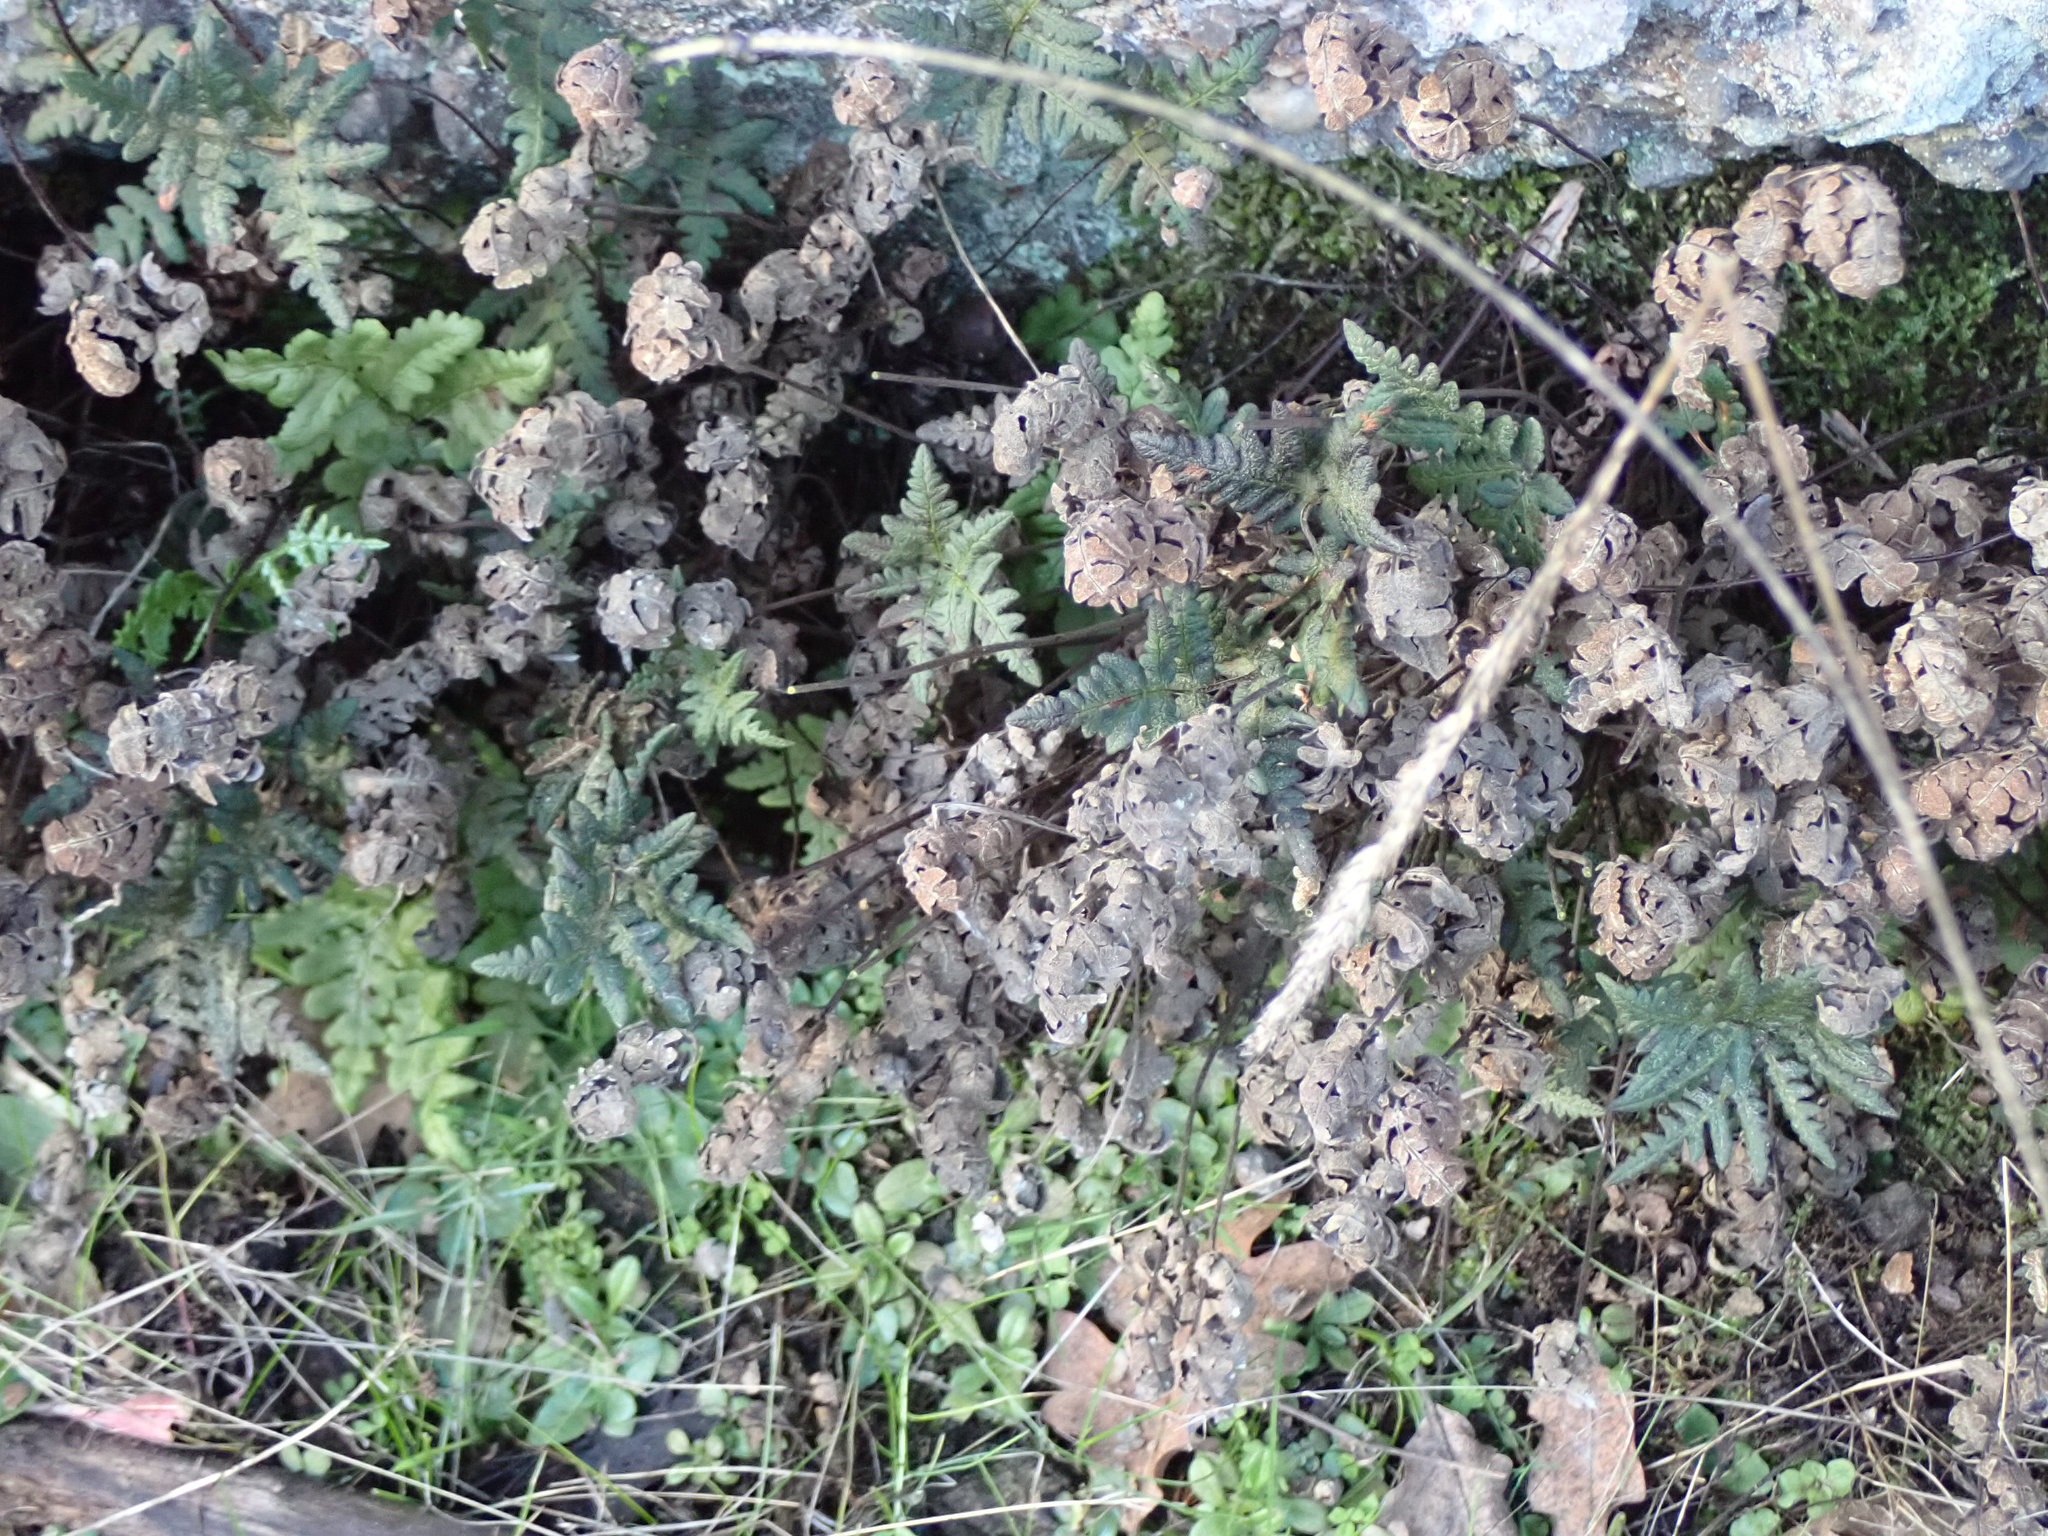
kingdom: Plantae
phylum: Tracheophyta
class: Polypodiopsida
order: Polypodiales
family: Pteridaceae
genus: Pentagramma
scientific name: Pentagramma triangularis
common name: Gold fern
